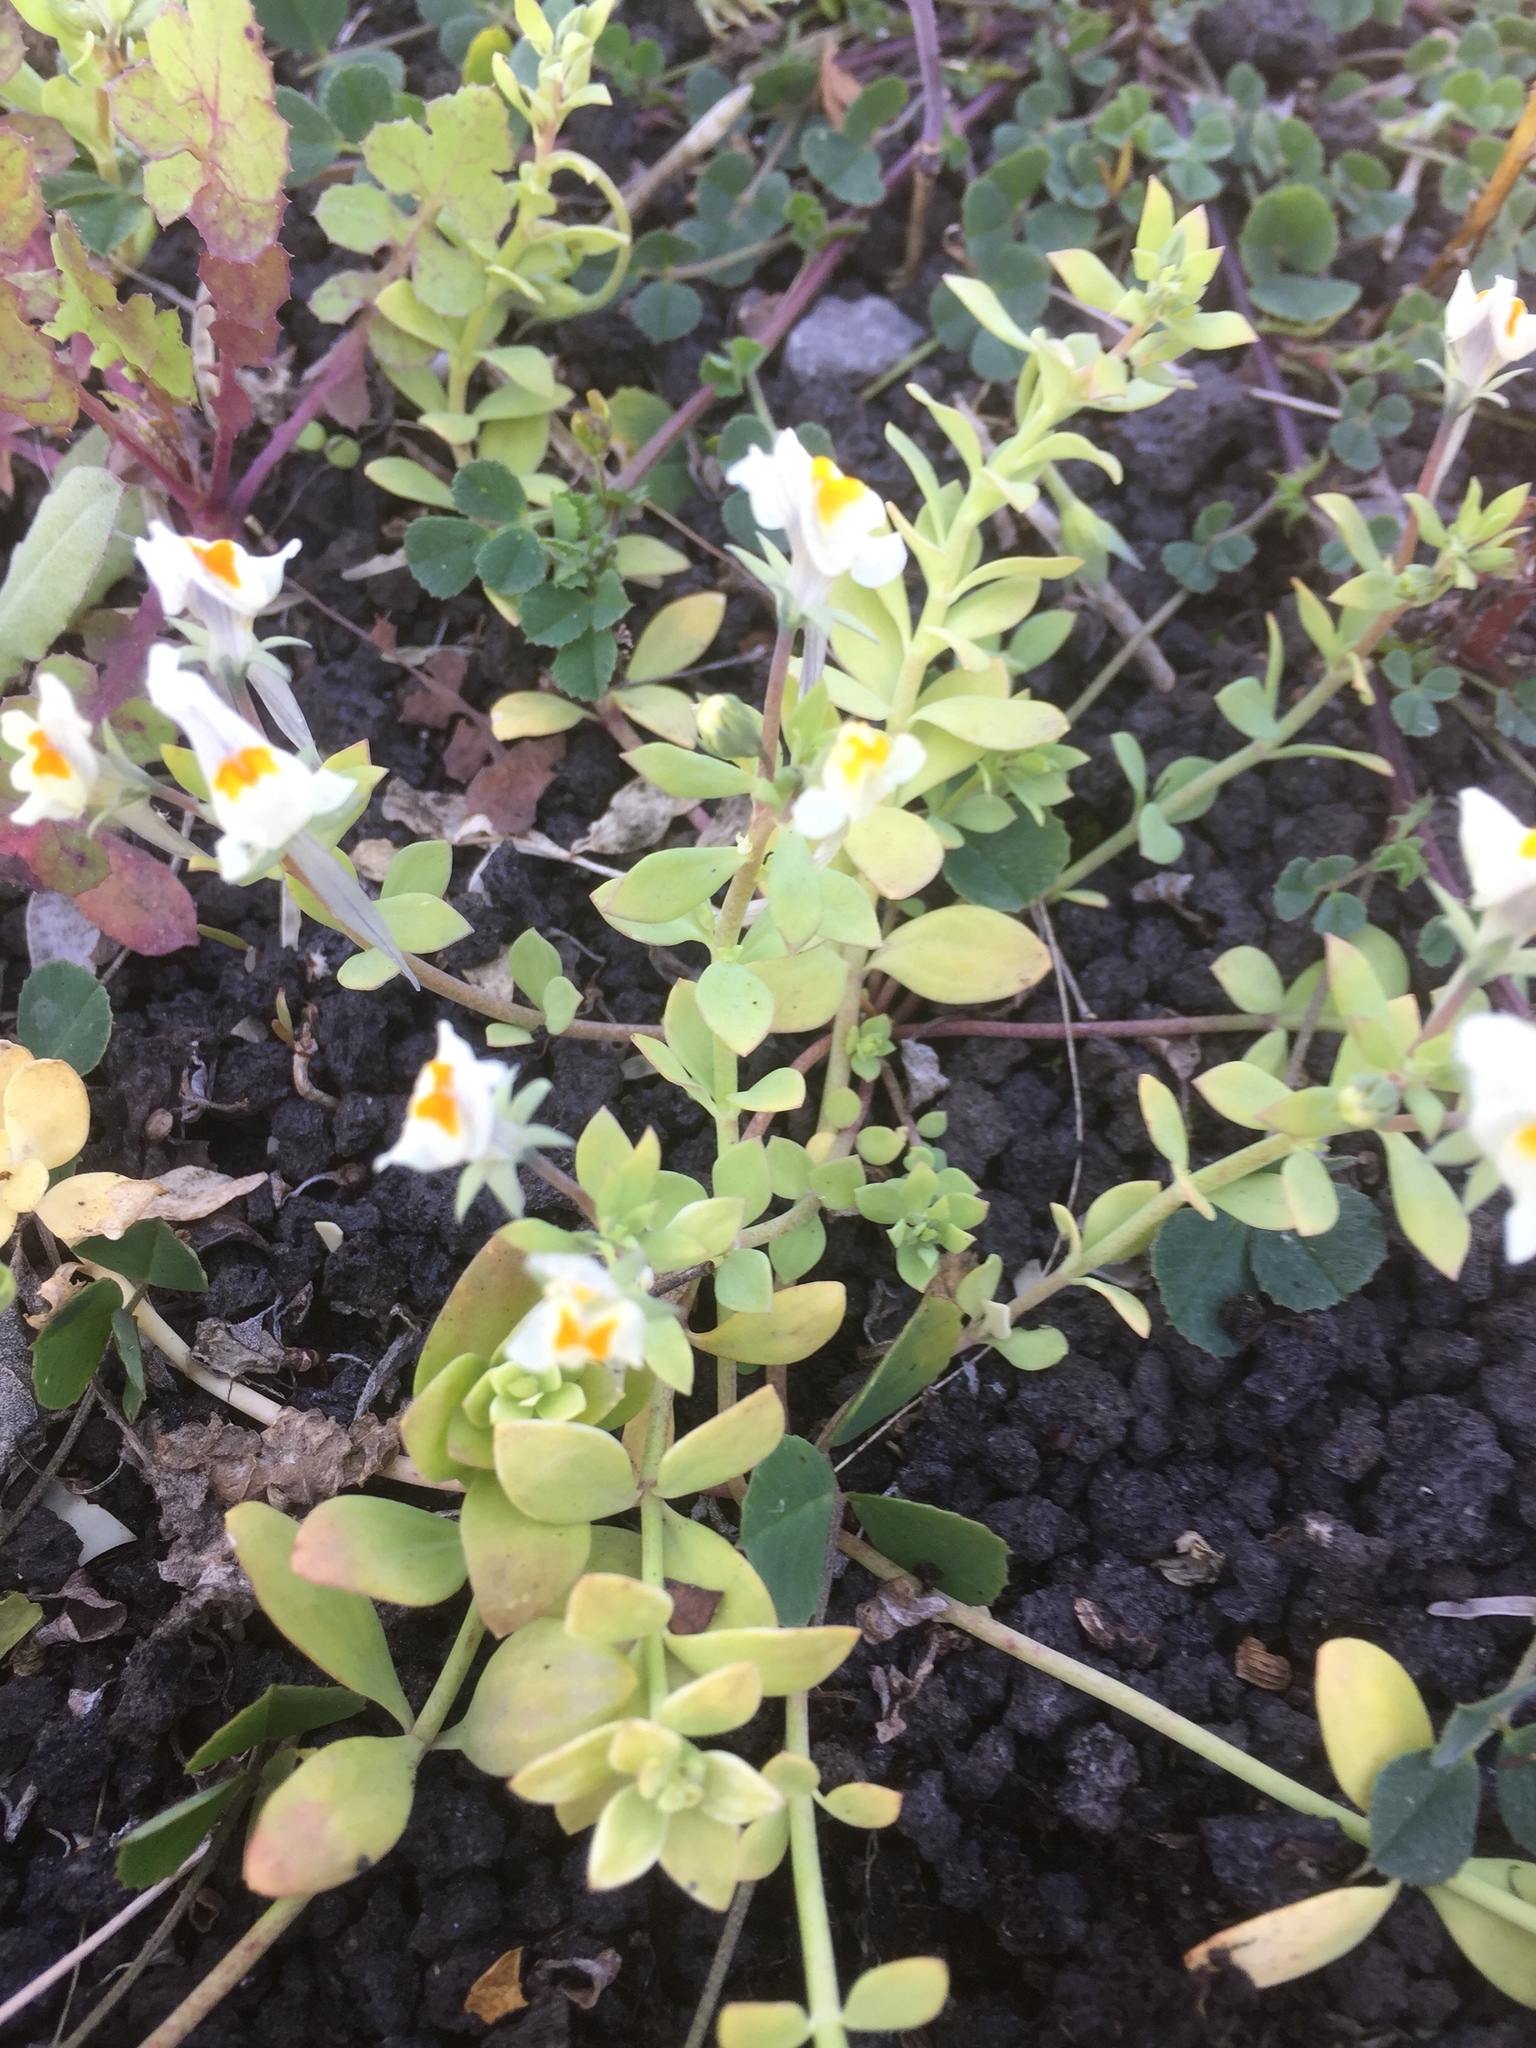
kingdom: Plantae
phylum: Tracheophyta
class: Magnoliopsida
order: Lamiales
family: Plantaginaceae
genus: Linaria
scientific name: Linaria reflexa
